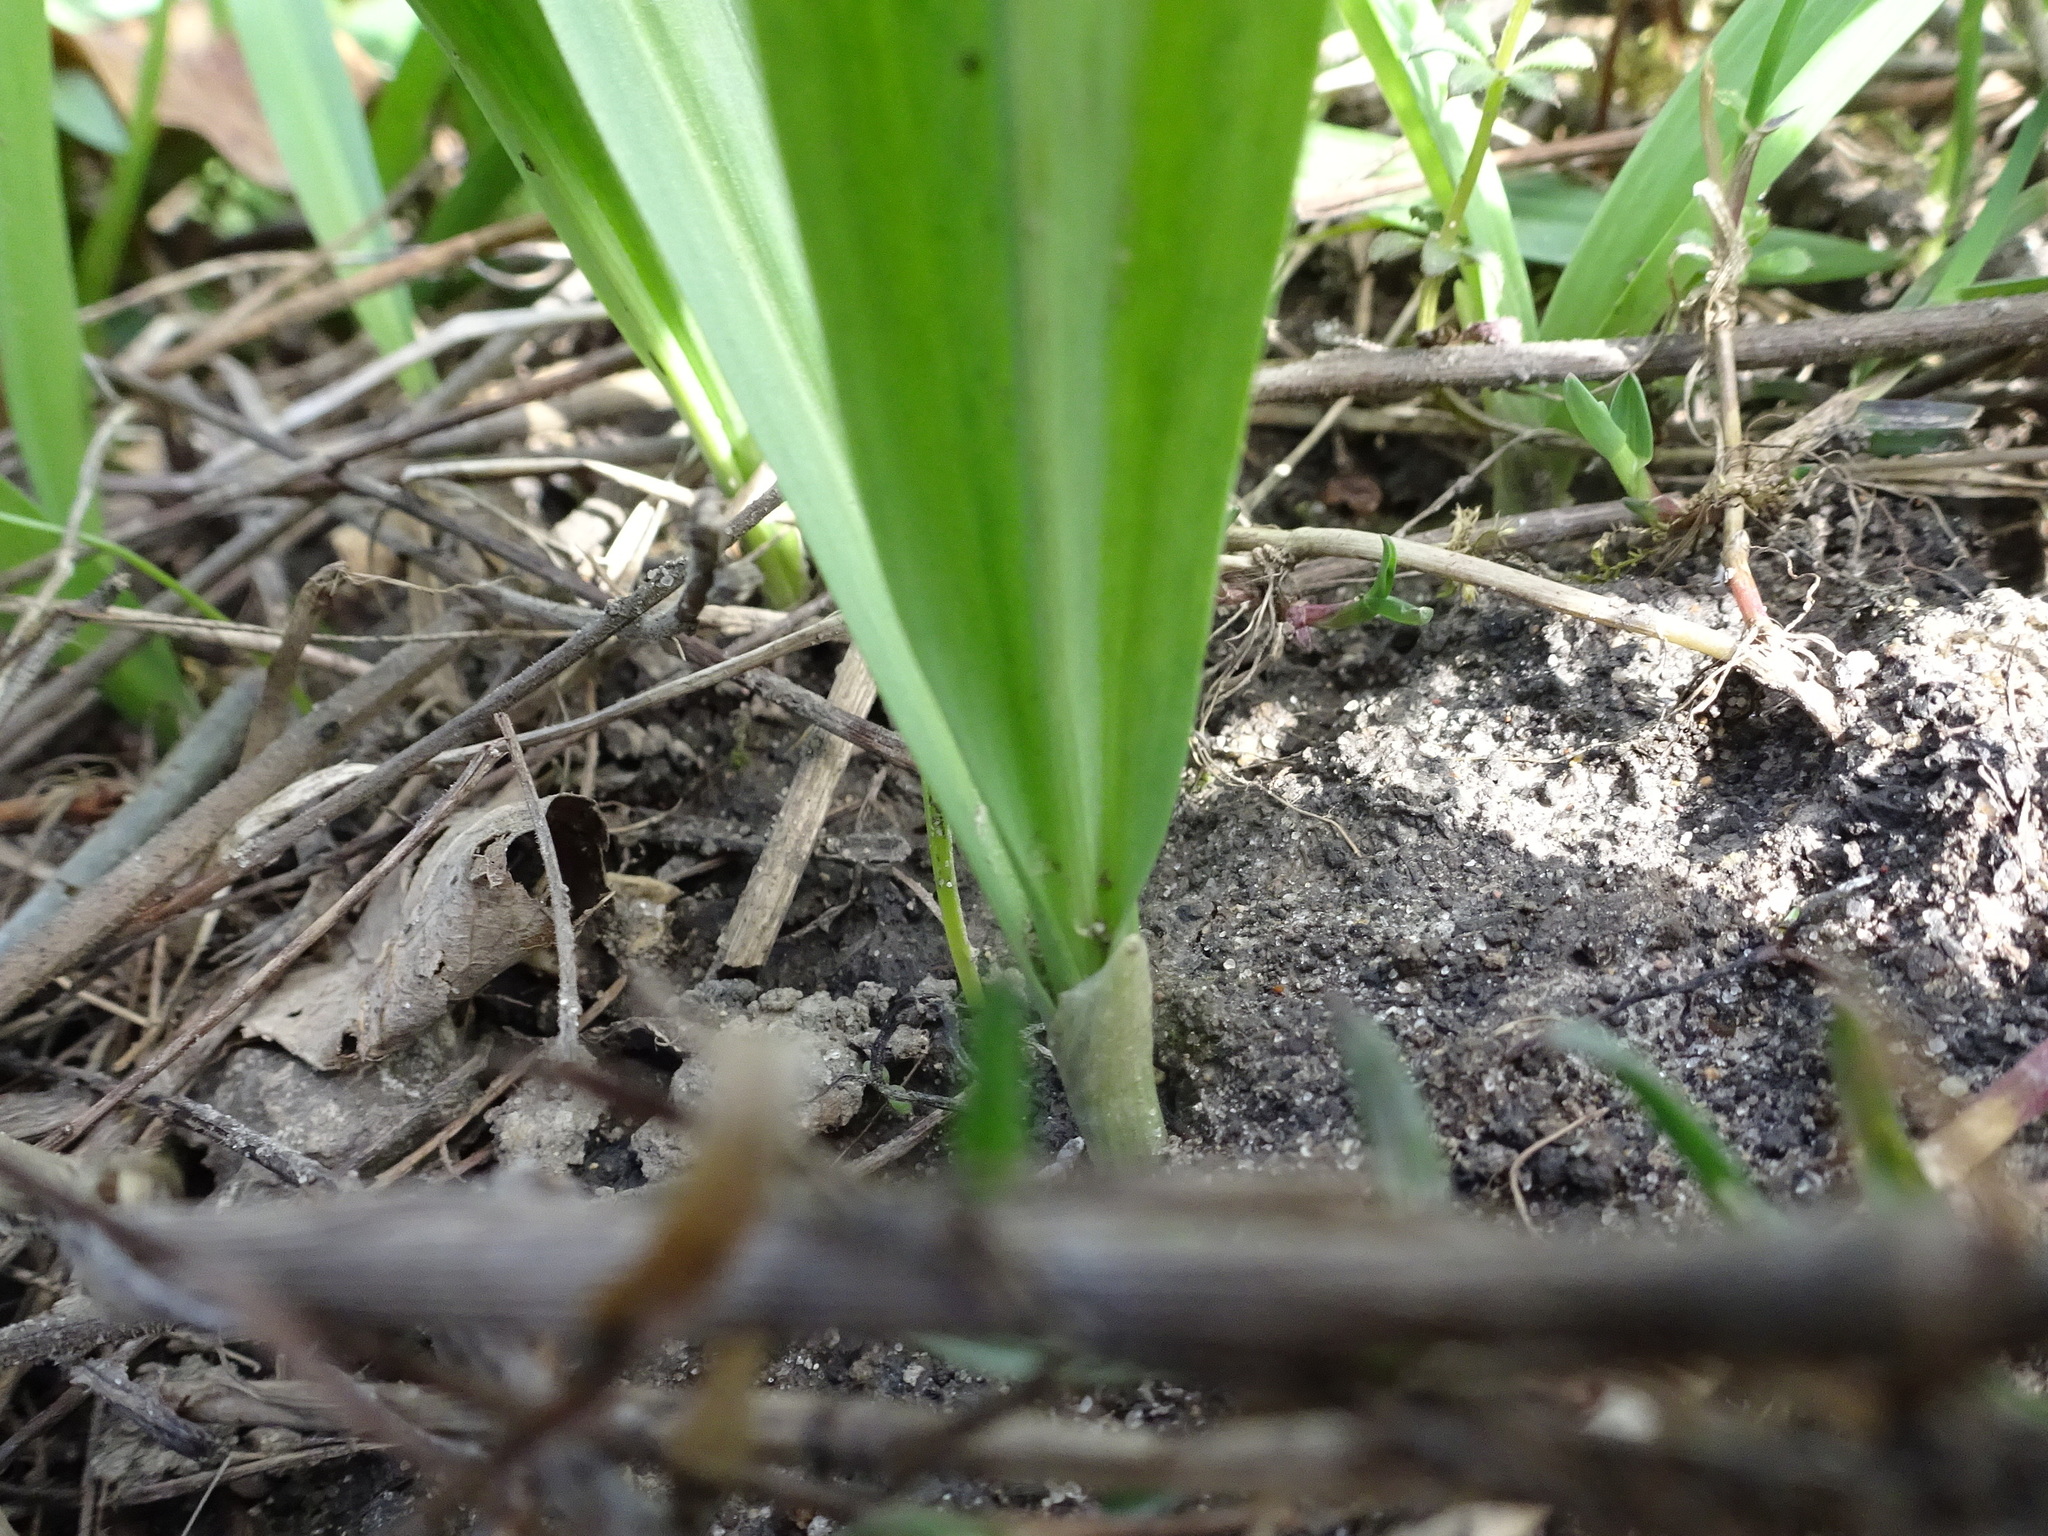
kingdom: Plantae
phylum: Tracheophyta
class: Liliopsida
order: Asparagales
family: Amaryllidaceae
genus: Allium
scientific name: Allium tricoccum
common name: Ramp
